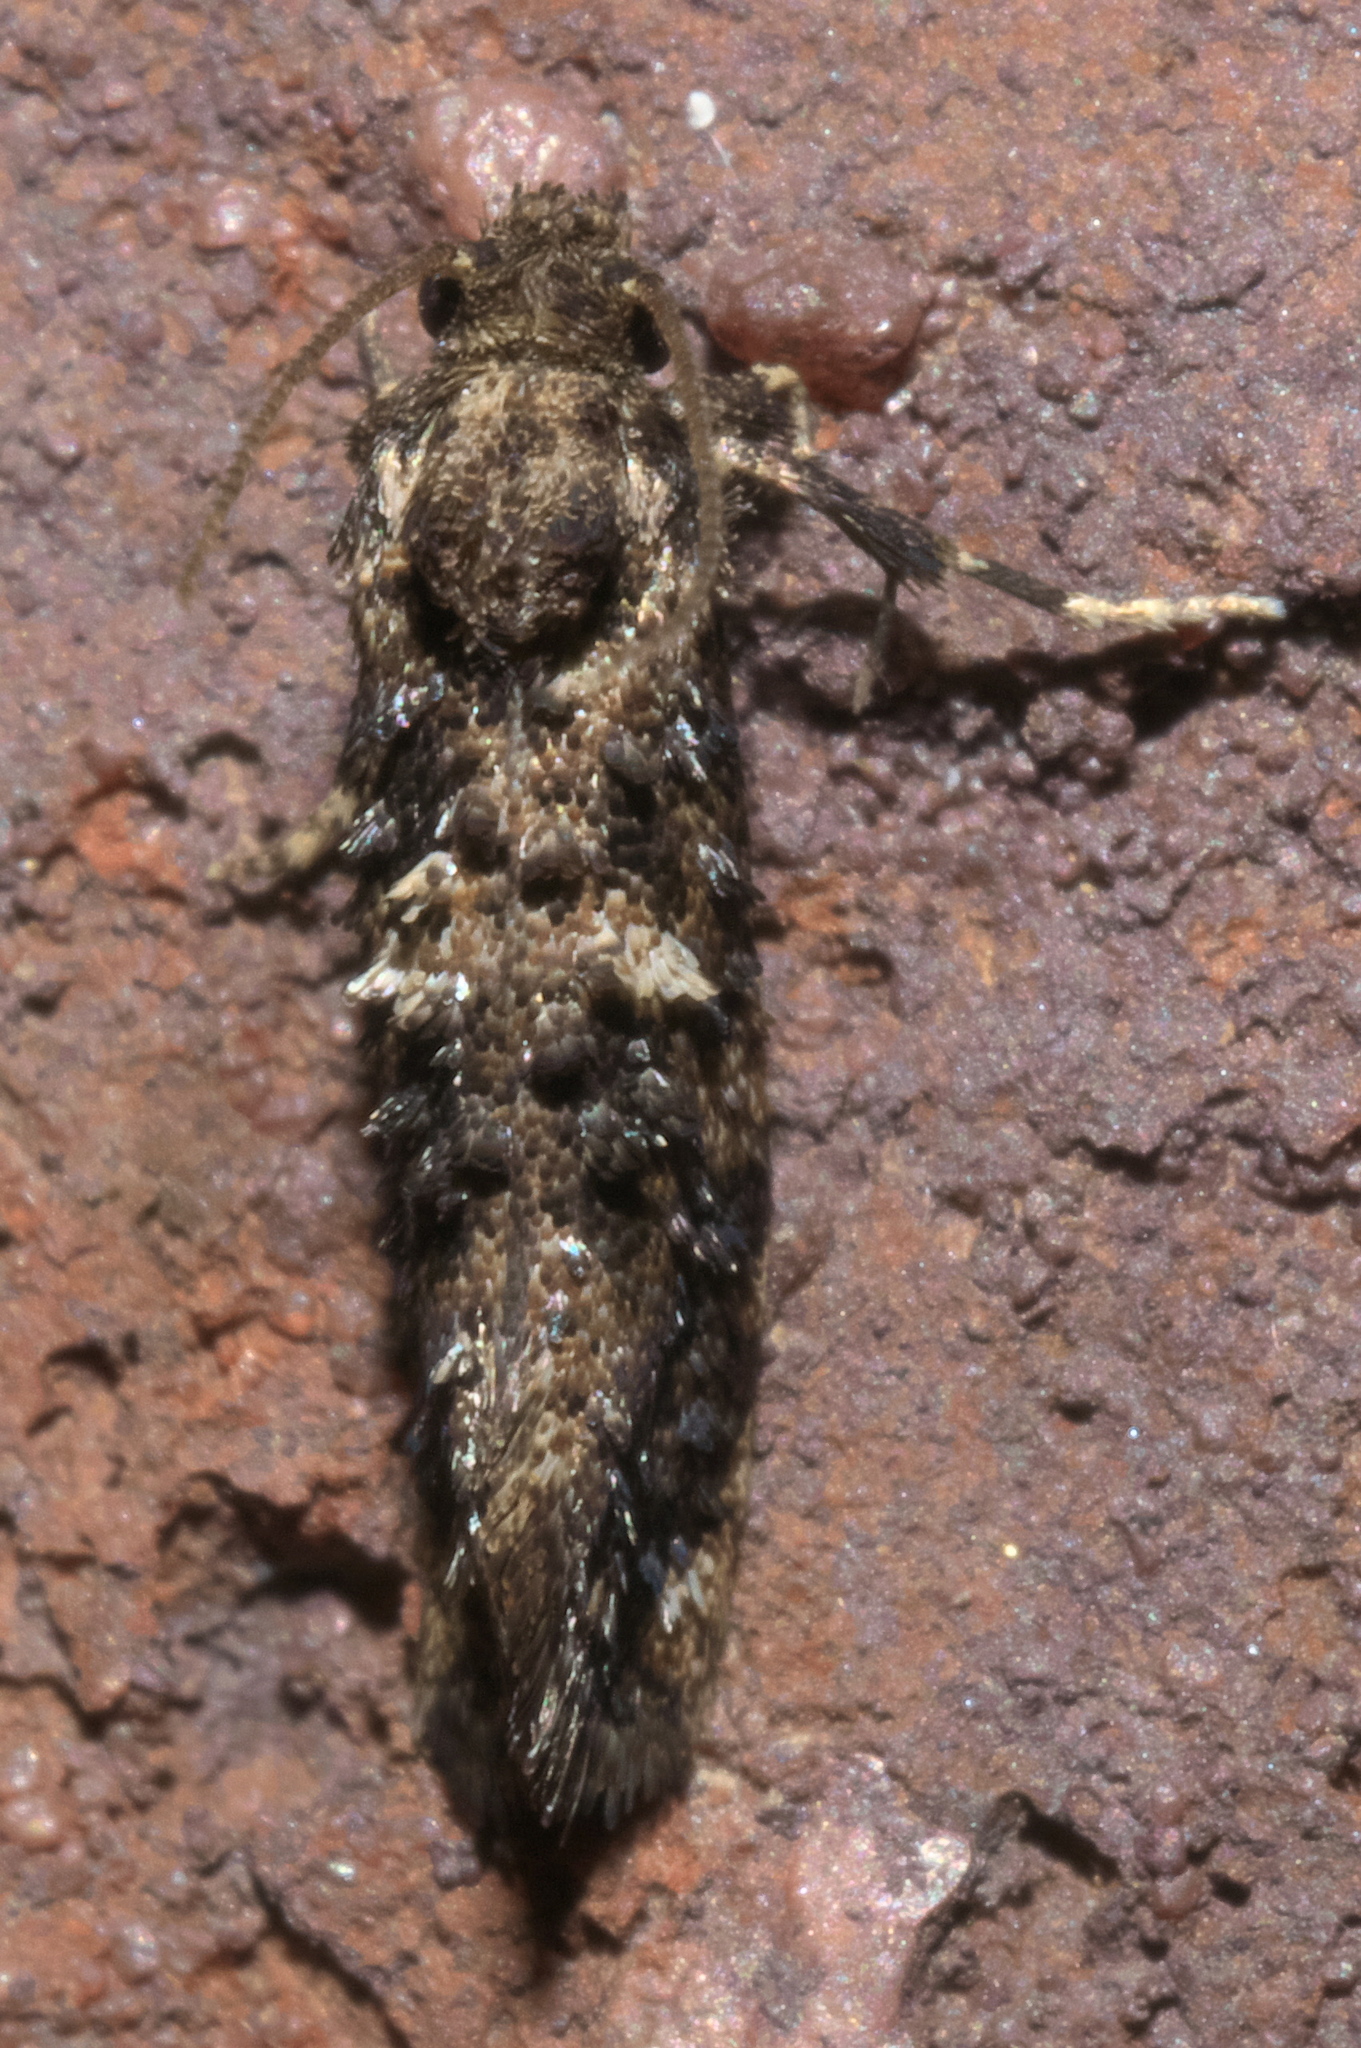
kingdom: Animalia
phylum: Arthropoda
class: Insecta
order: Lepidoptera
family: Tineidae
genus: Acrolophus
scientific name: Acrolophus cressoni
